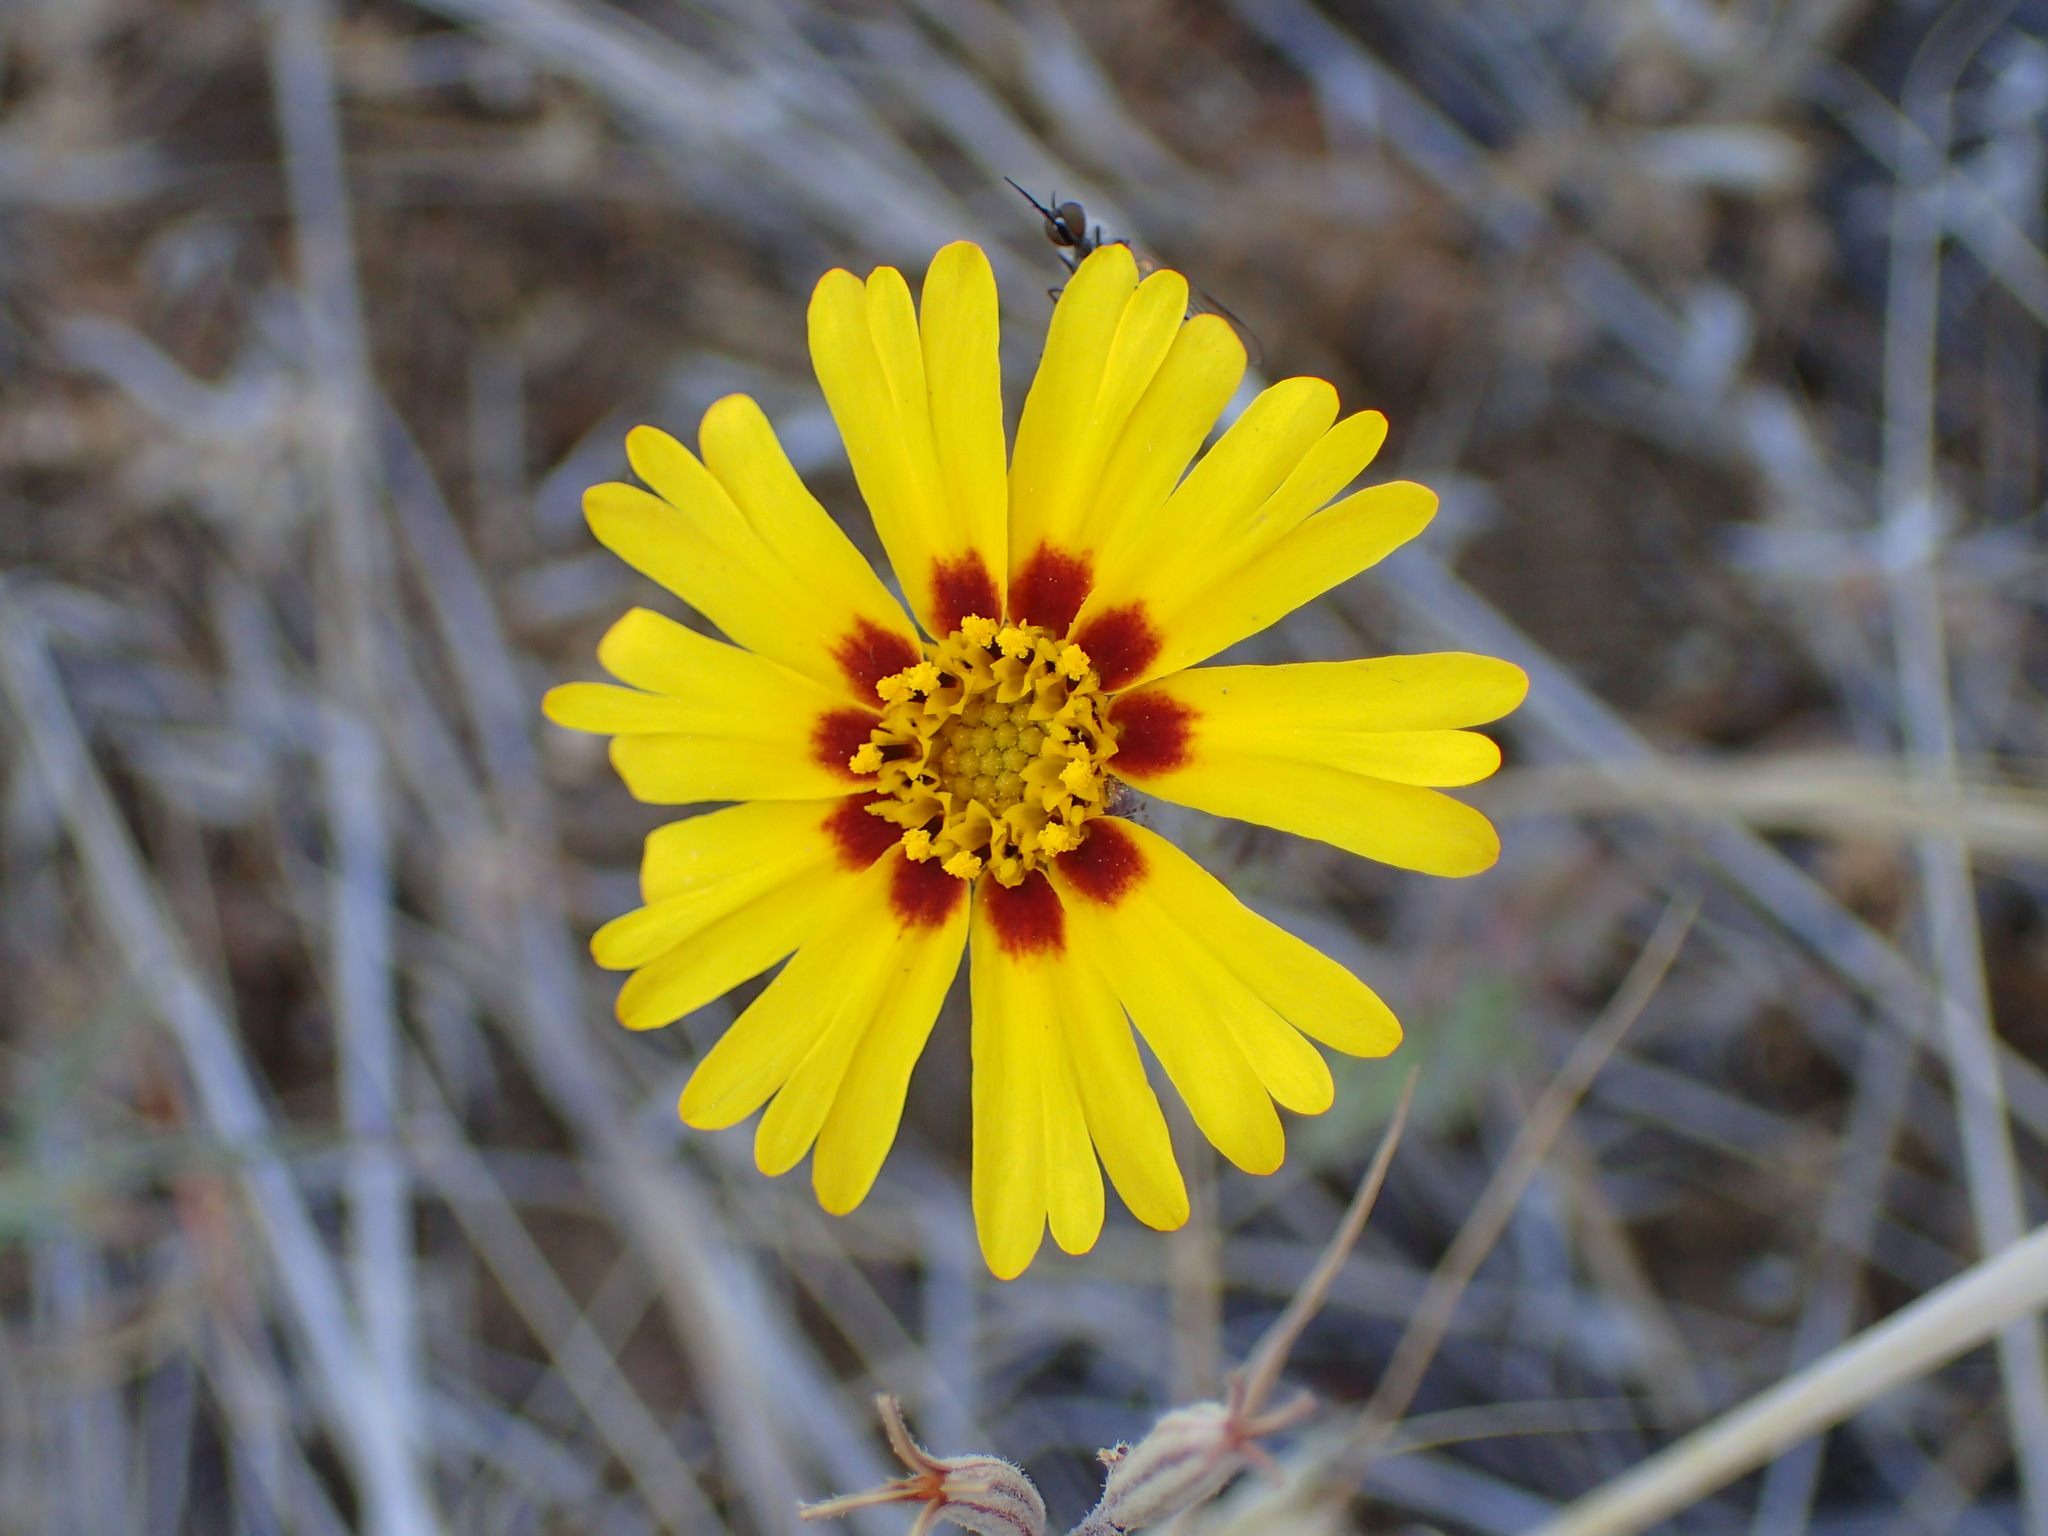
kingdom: Plantae
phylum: Tracheophyta
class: Magnoliopsida
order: Asterales
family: Asteraceae
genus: Madia
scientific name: Madia elegans
